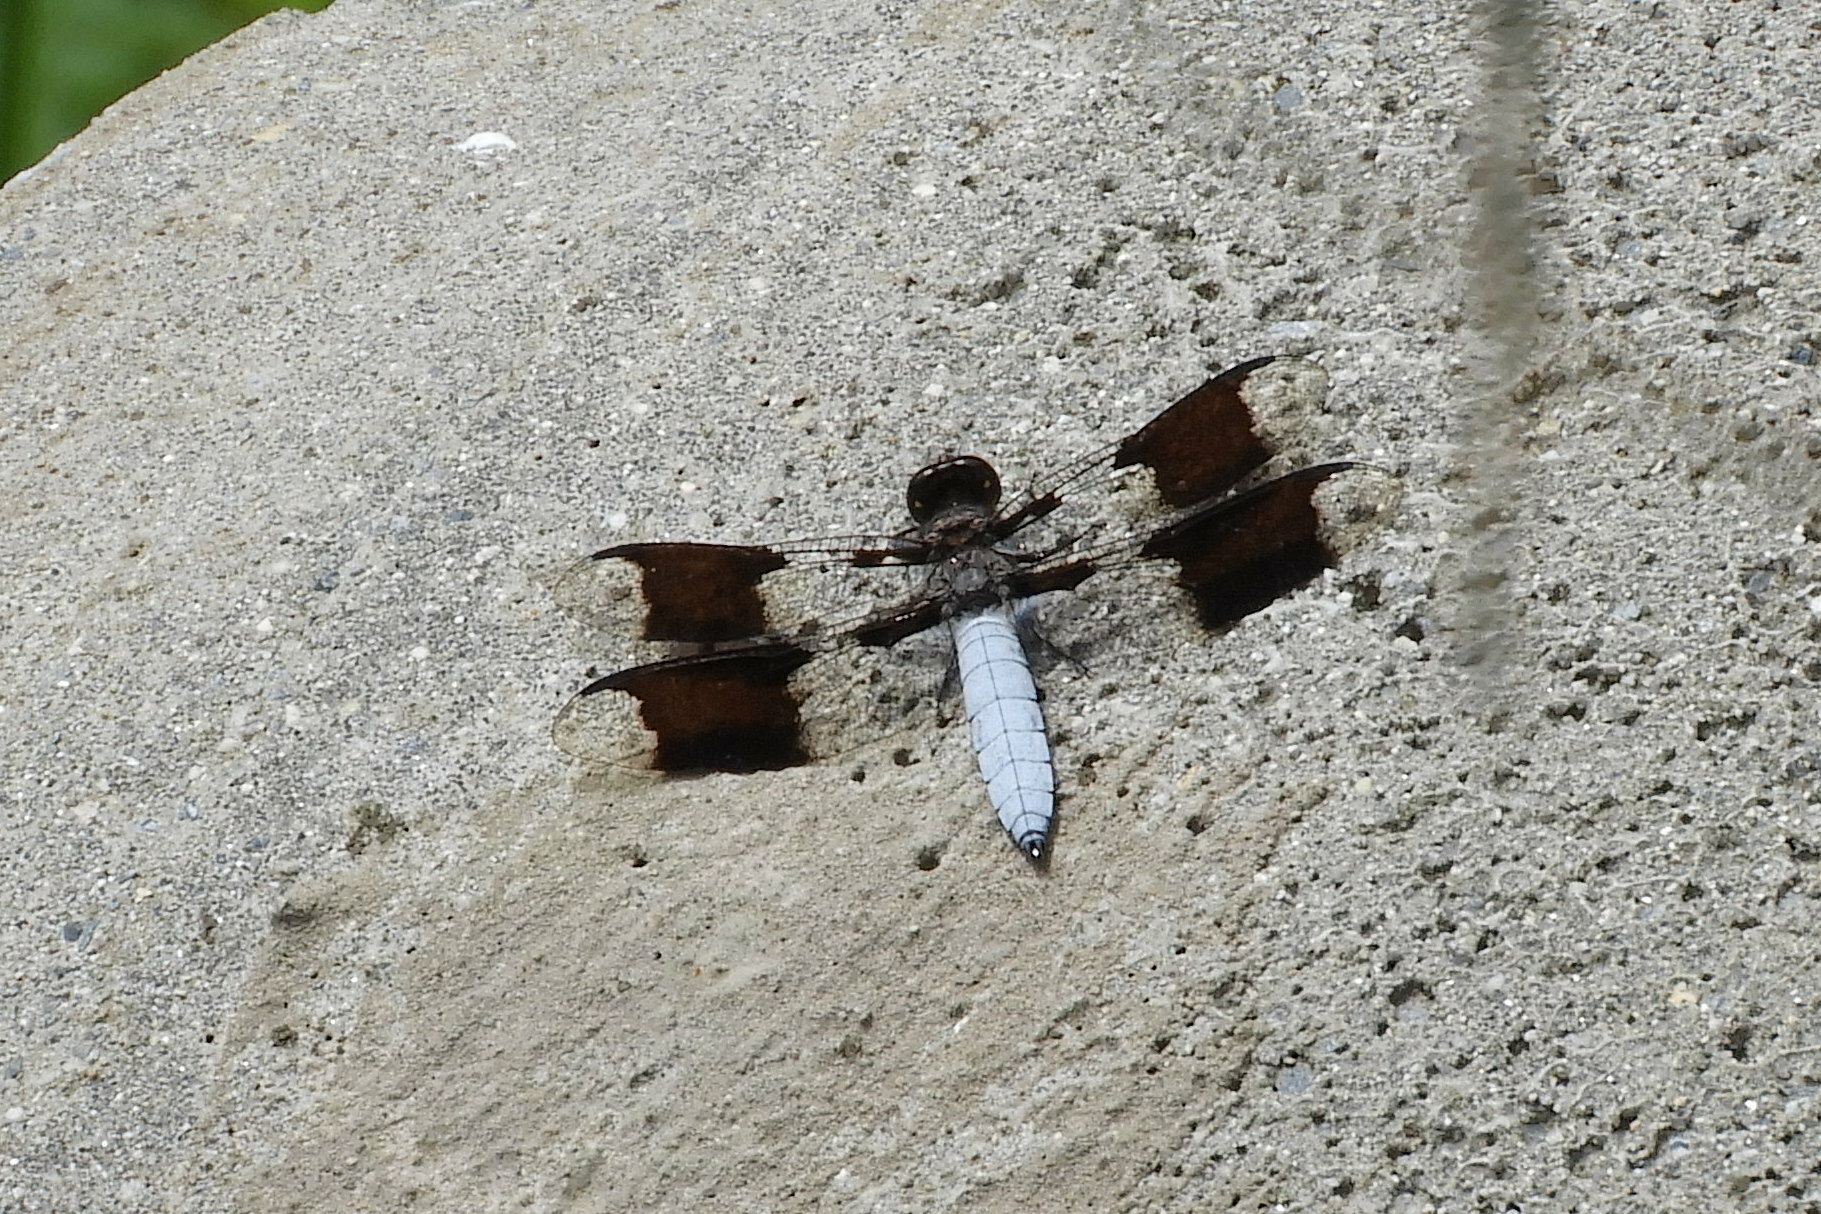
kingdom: Animalia
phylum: Arthropoda
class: Insecta
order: Odonata
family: Libellulidae
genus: Plathemis
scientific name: Plathemis lydia
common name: Common whitetail
